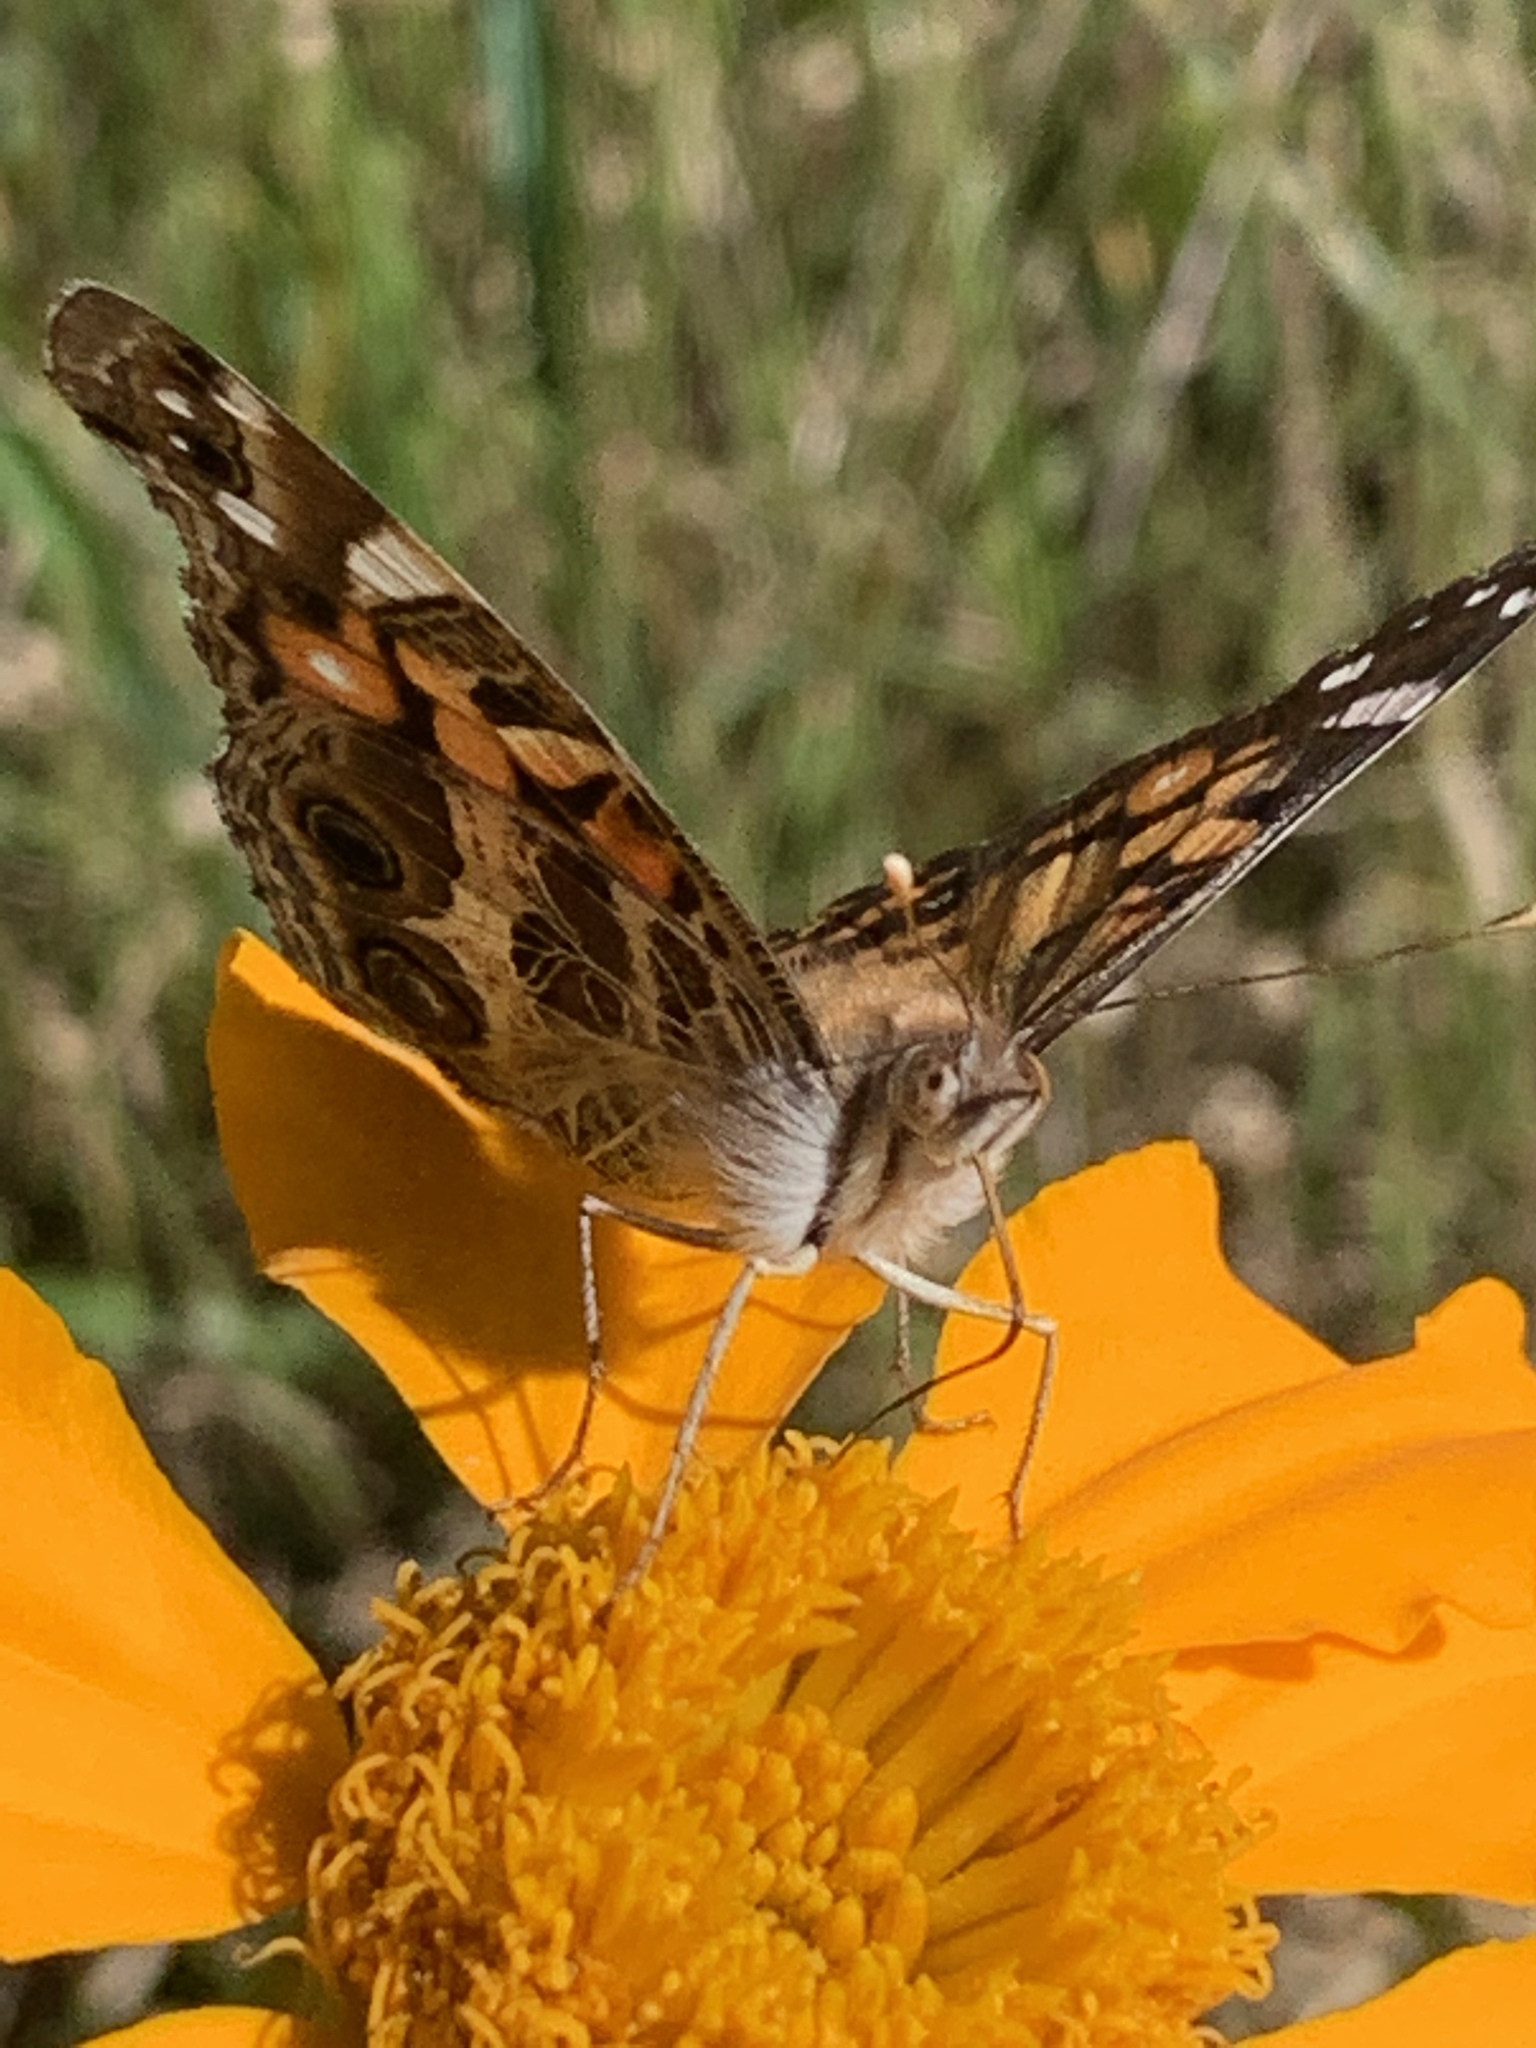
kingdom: Animalia
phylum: Arthropoda
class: Insecta
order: Lepidoptera
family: Nymphalidae
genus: Vanessa
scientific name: Vanessa virginiensis
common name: American lady
